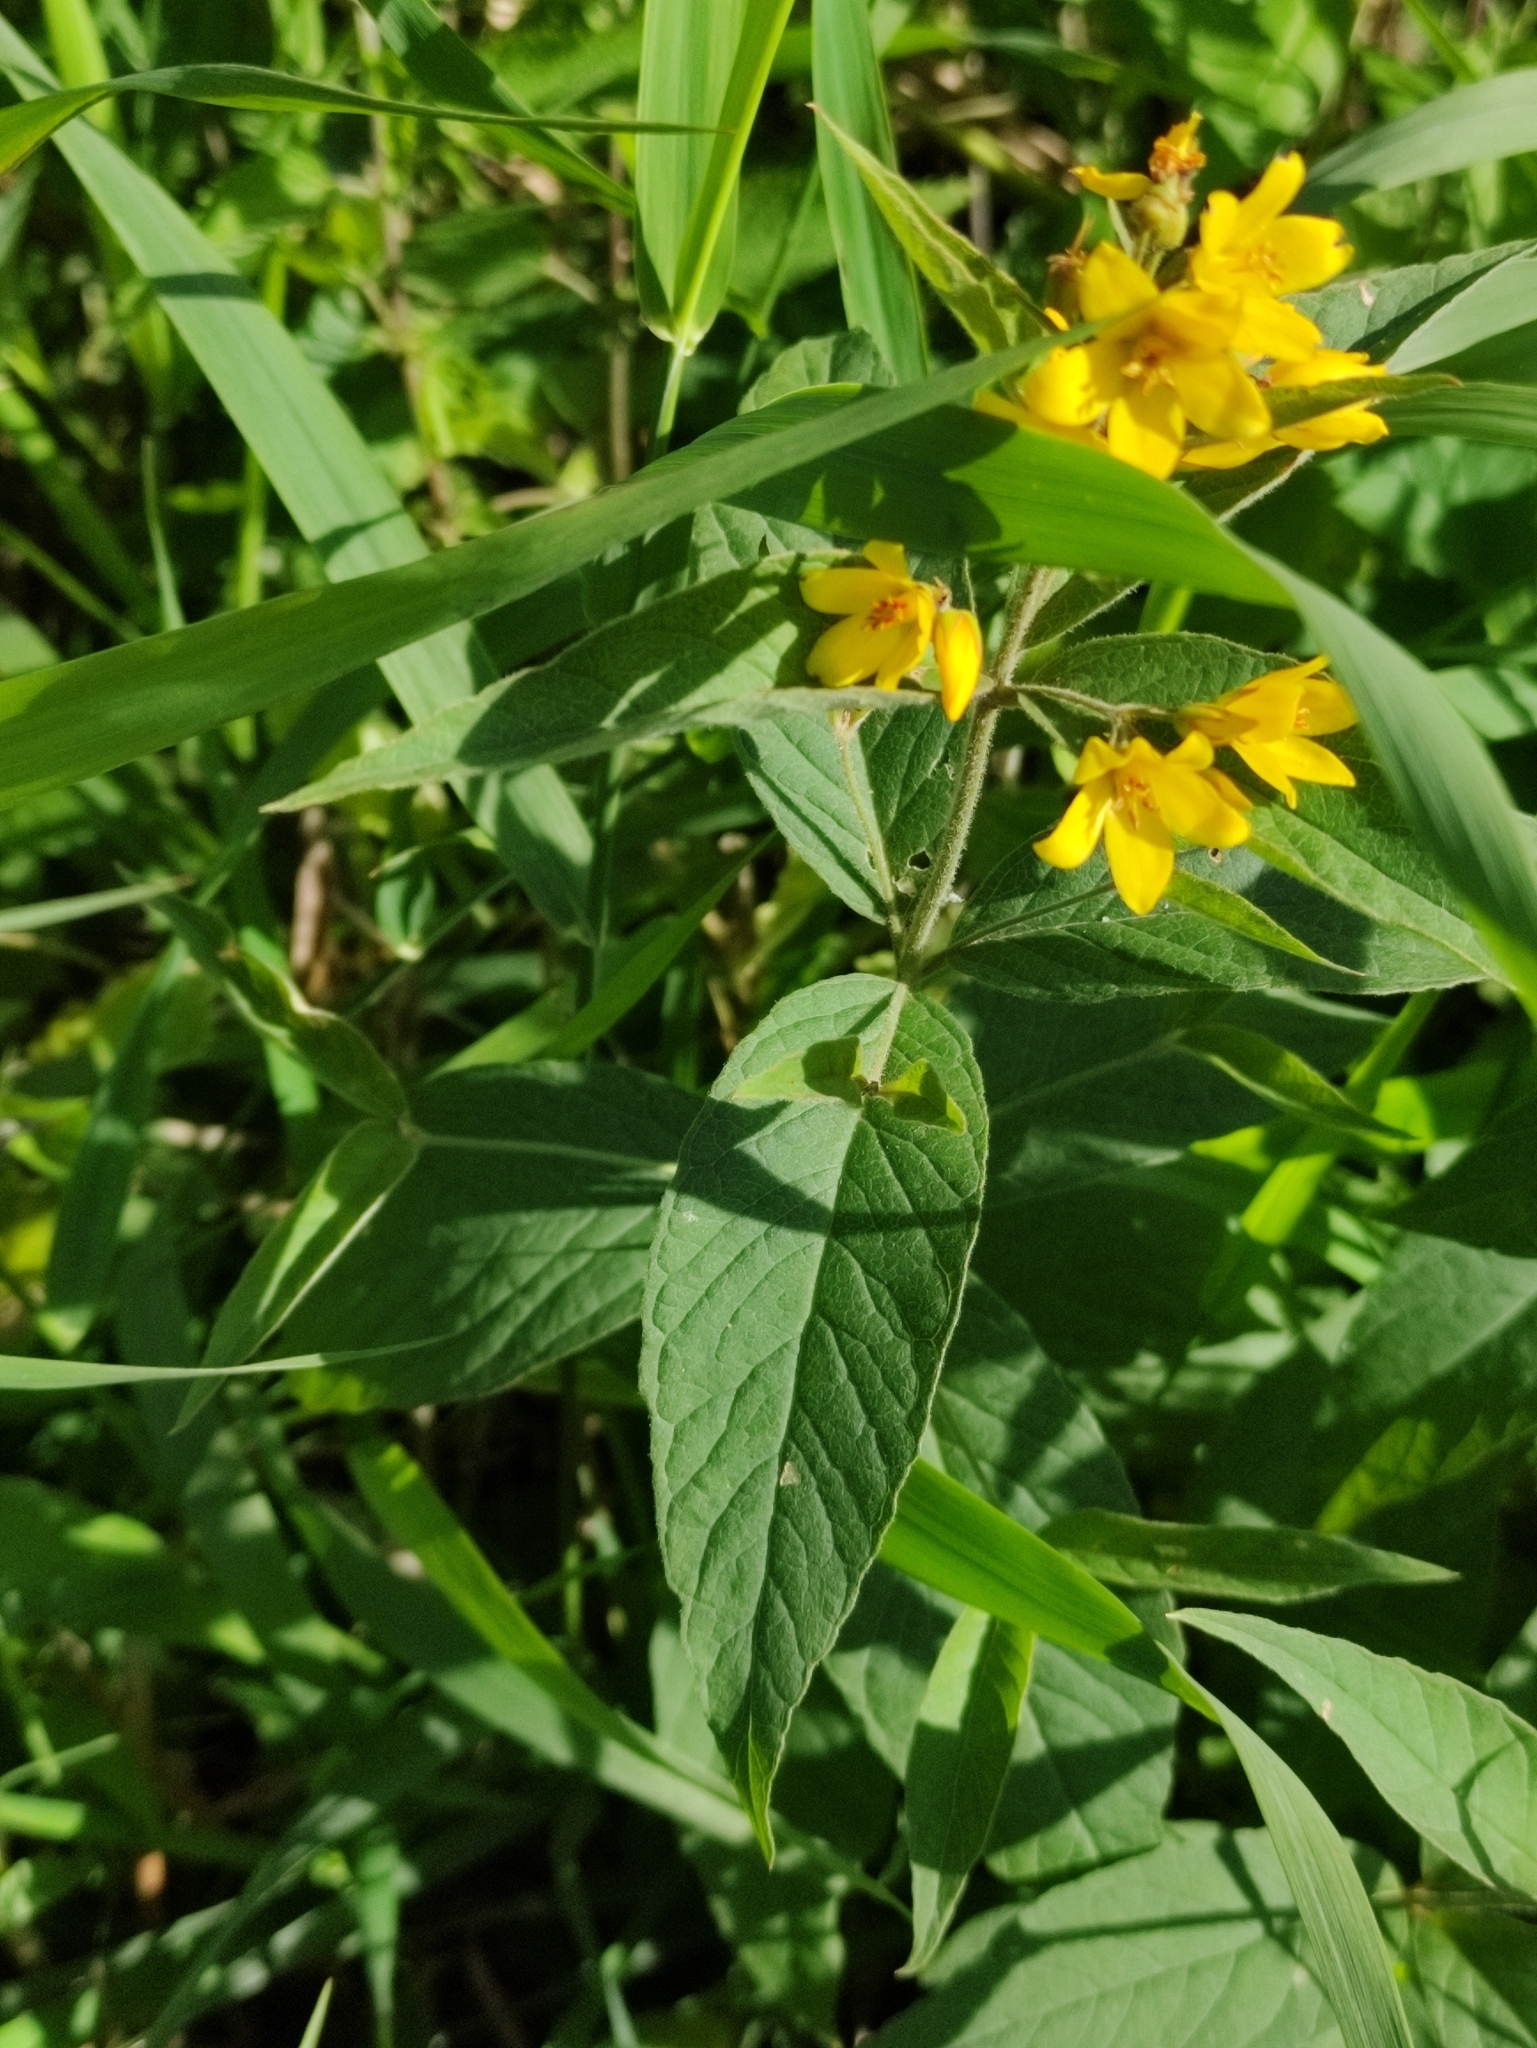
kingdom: Plantae
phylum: Tracheophyta
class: Magnoliopsida
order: Ericales
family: Primulaceae
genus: Lysimachia
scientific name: Lysimachia vulgaris
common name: Yellow loosestrife
